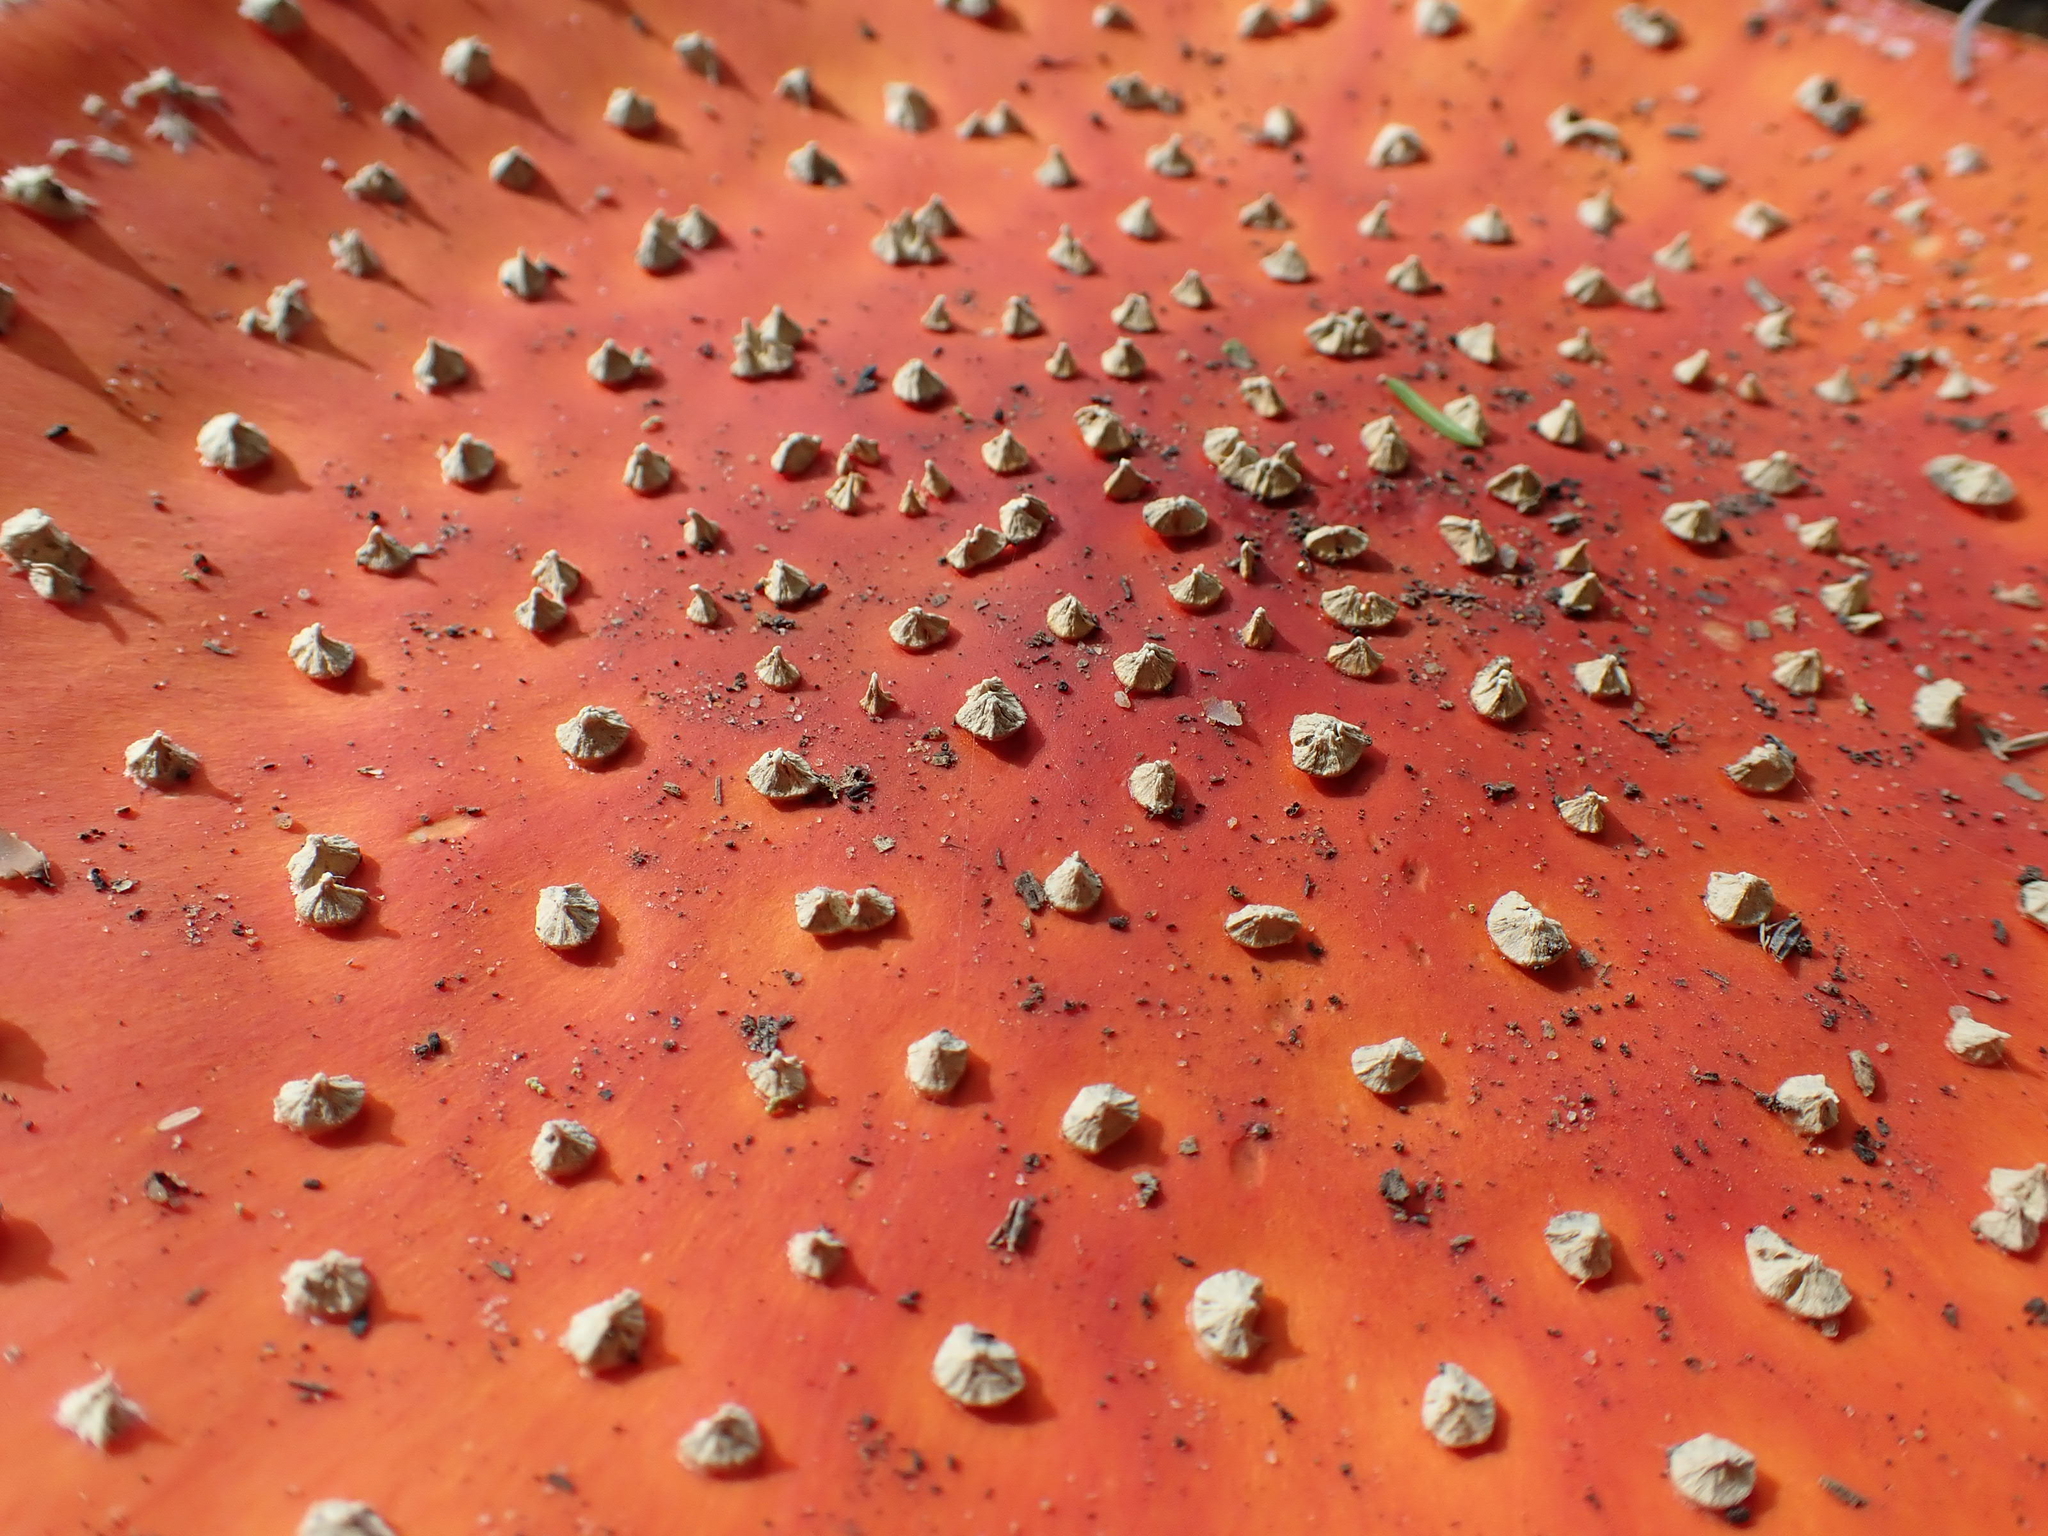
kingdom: Fungi
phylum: Basidiomycota
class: Agaricomycetes
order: Agaricales
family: Amanitaceae
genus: Amanita
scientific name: Amanita muscaria
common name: Fly agaric
